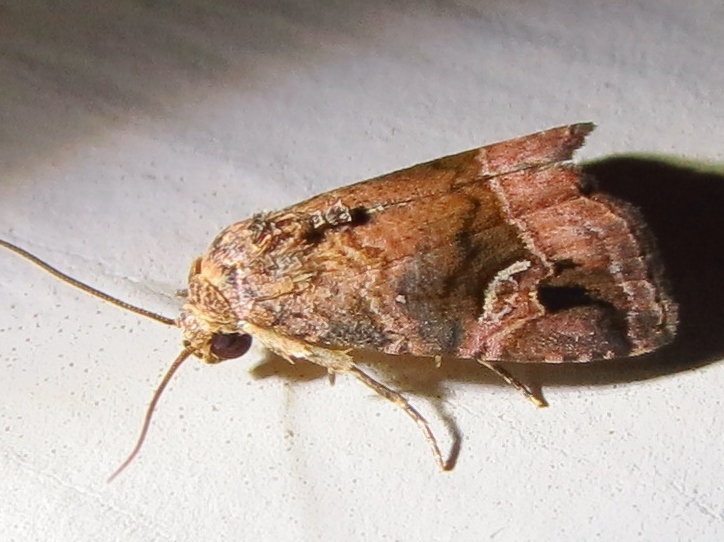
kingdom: Animalia
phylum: Arthropoda
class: Insecta
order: Lepidoptera
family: Noctuidae
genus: Ozarba
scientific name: Ozarba nebula
